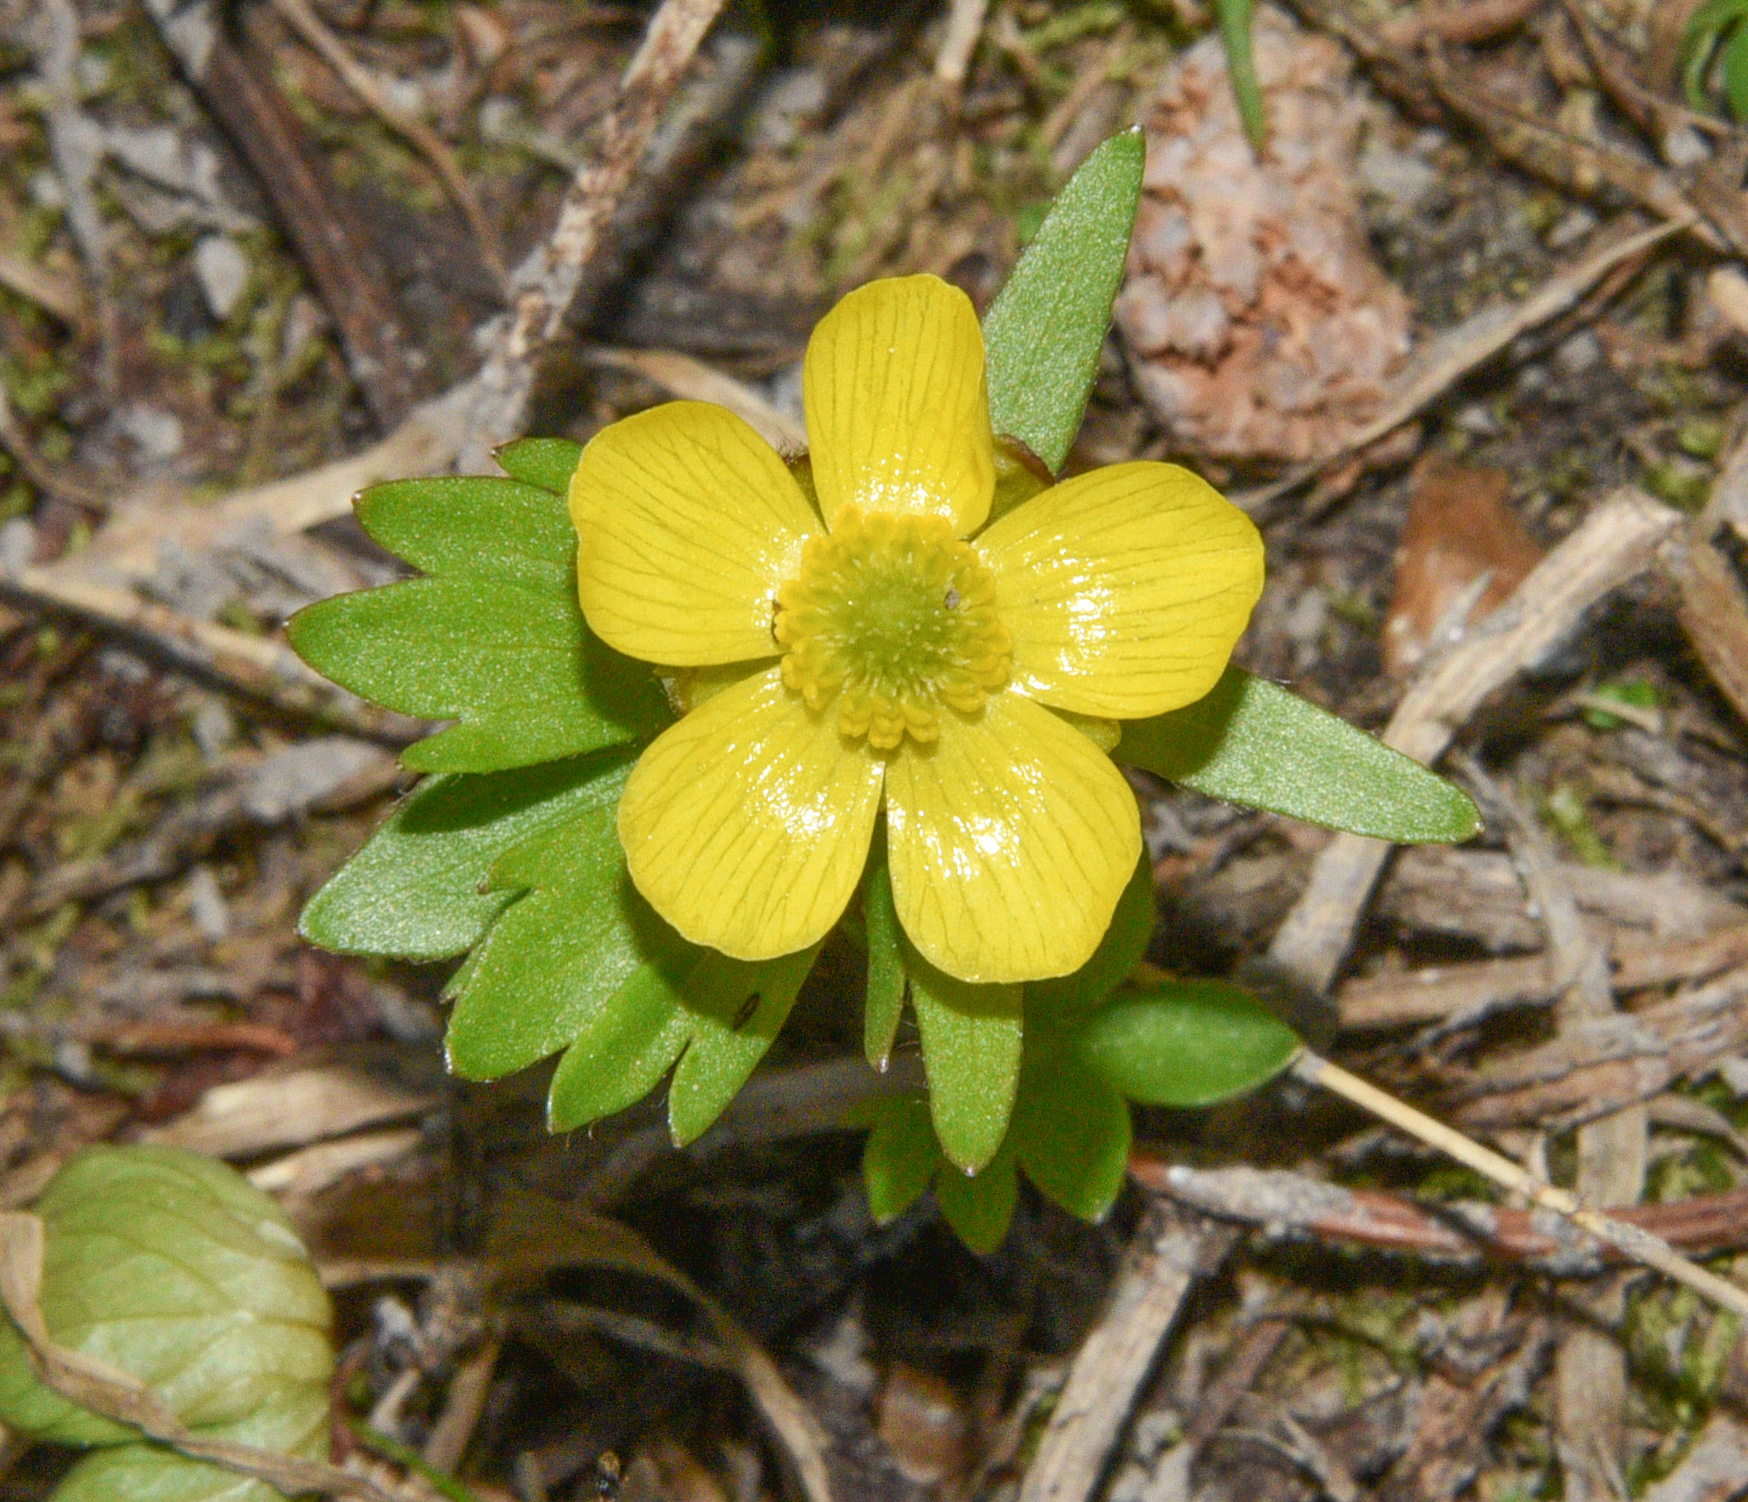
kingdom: Plantae
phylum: Tracheophyta
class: Magnoliopsida
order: Ranunculales
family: Ranunculaceae
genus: Ranunculus
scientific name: Ranunculus glaberrimus
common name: Sagebrush buttercup
